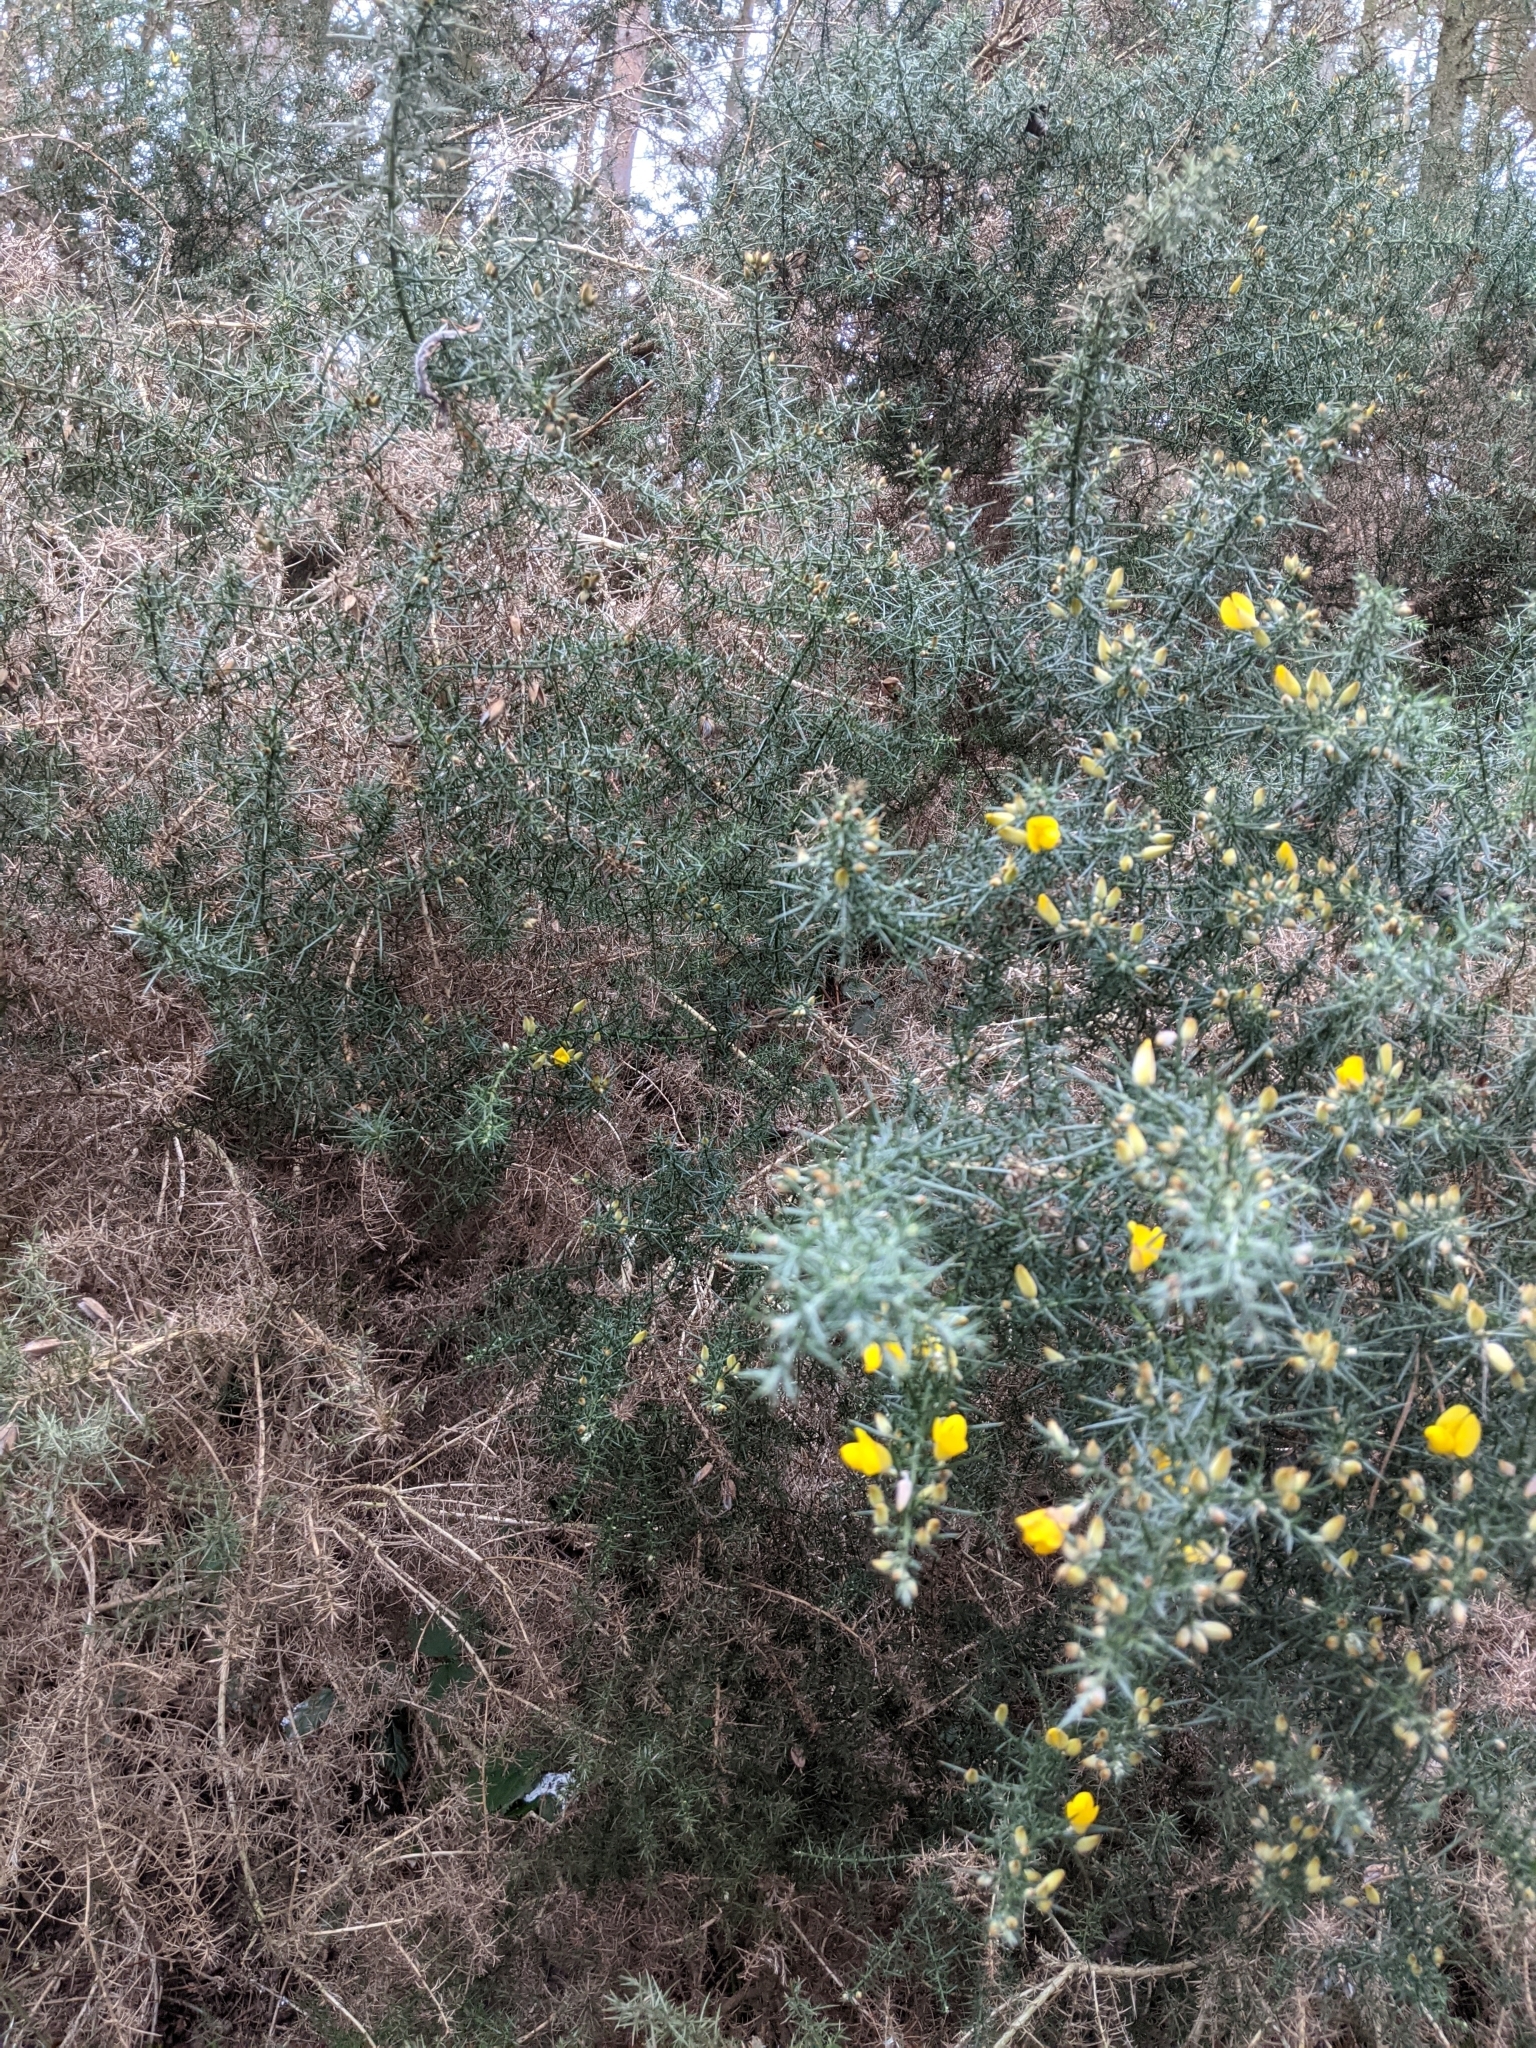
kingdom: Plantae
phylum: Tracheophyta
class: Magnoliopsida
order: Fabales
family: Fabaceae
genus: Ulex
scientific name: Ulex europaeus
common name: Common gorse
